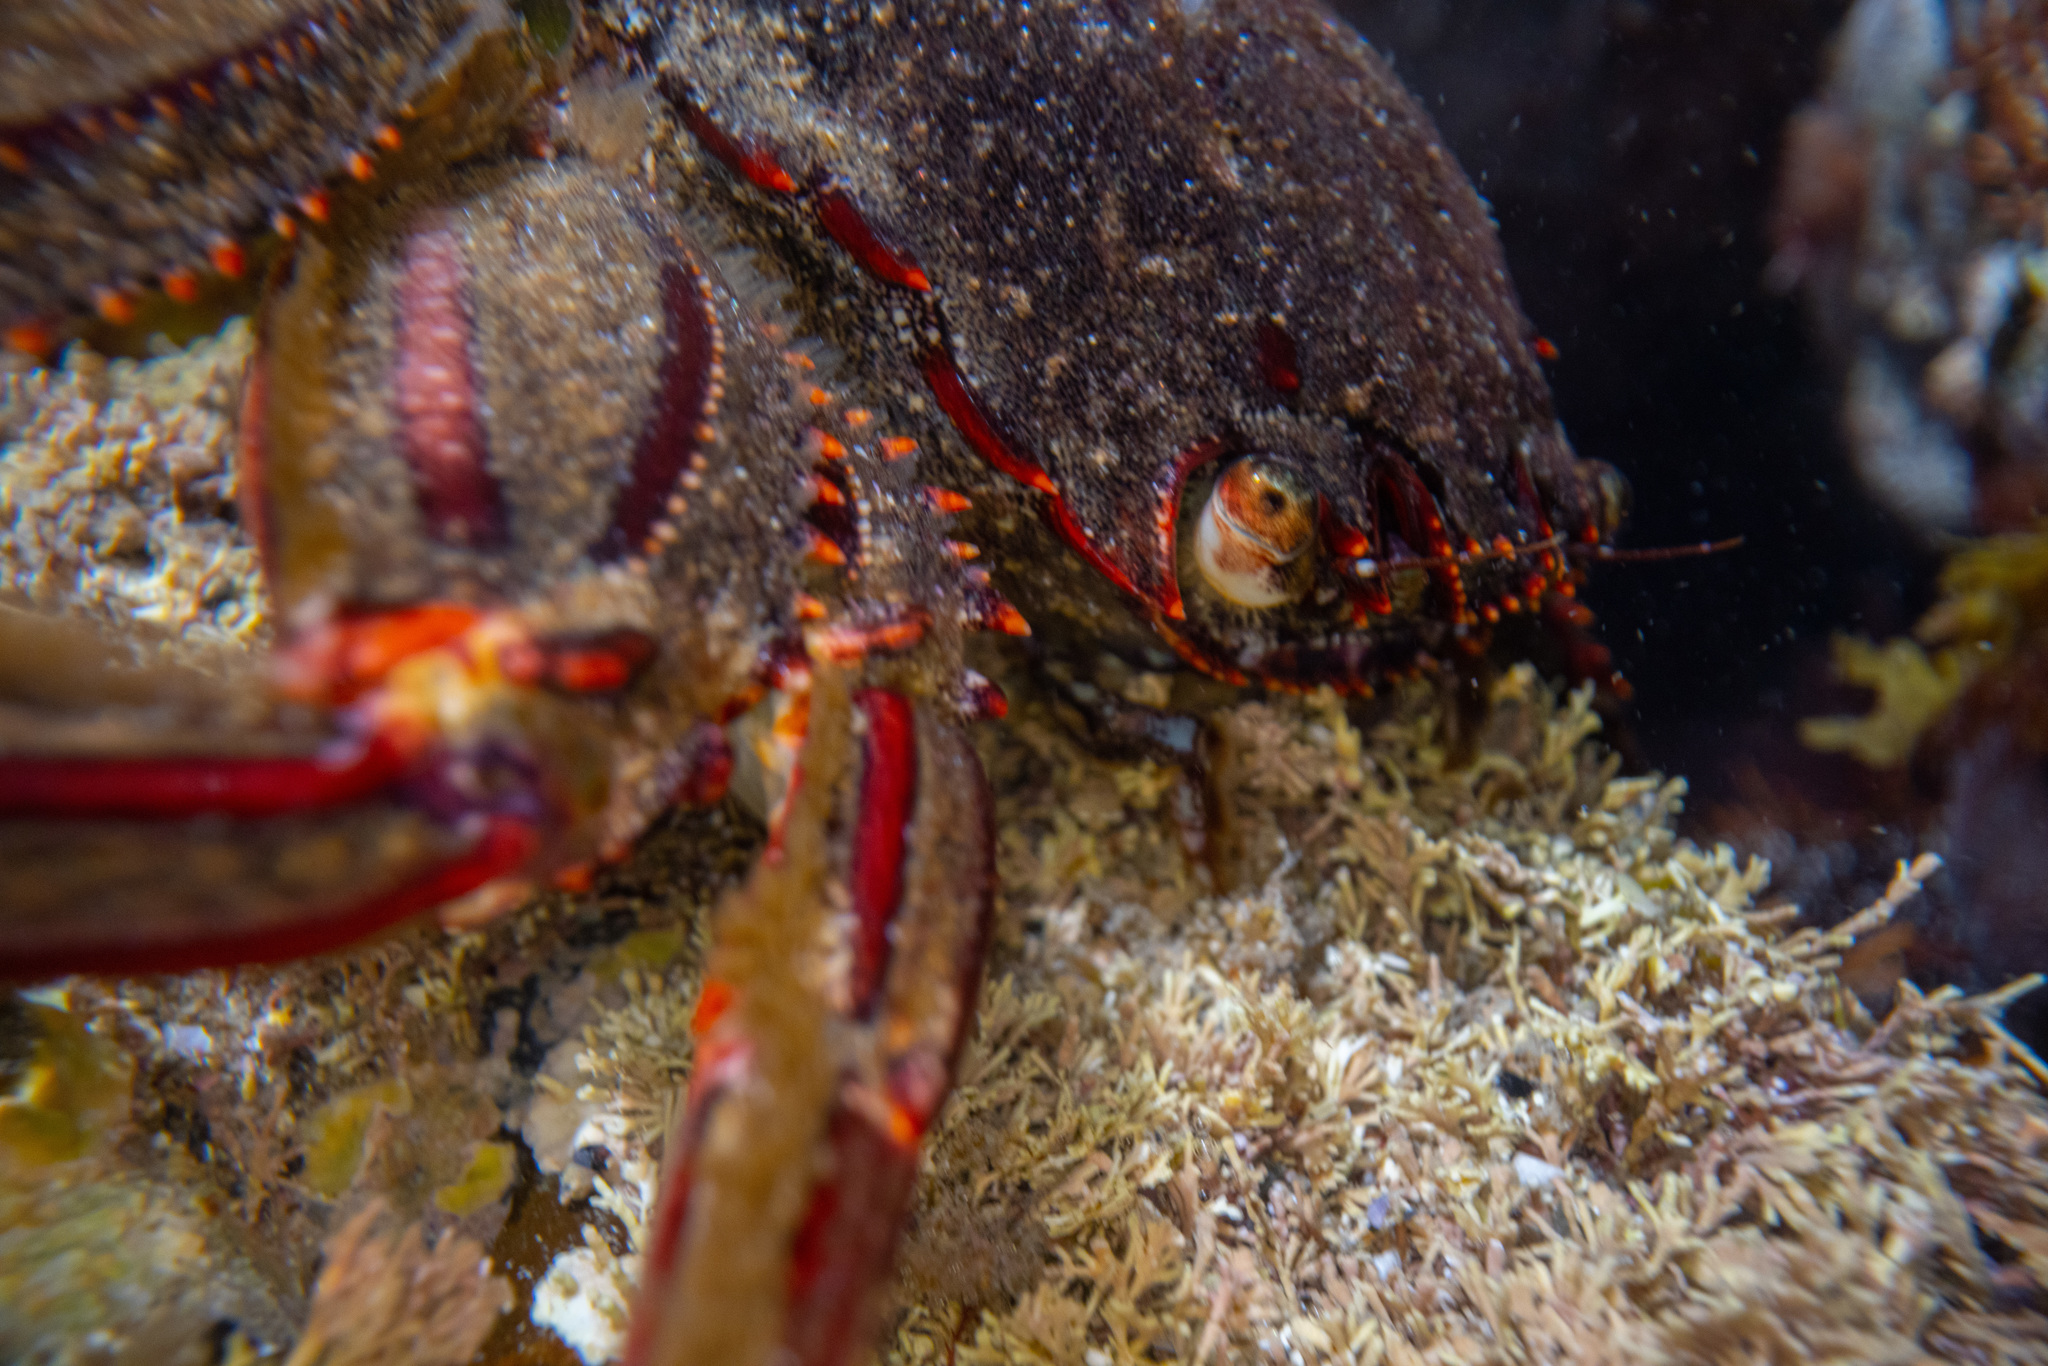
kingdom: Animalia
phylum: Arthropoda
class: Malacostraca
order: Decapoda
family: Plagusiidae
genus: Guinusia
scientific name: Guinusia chabrus
